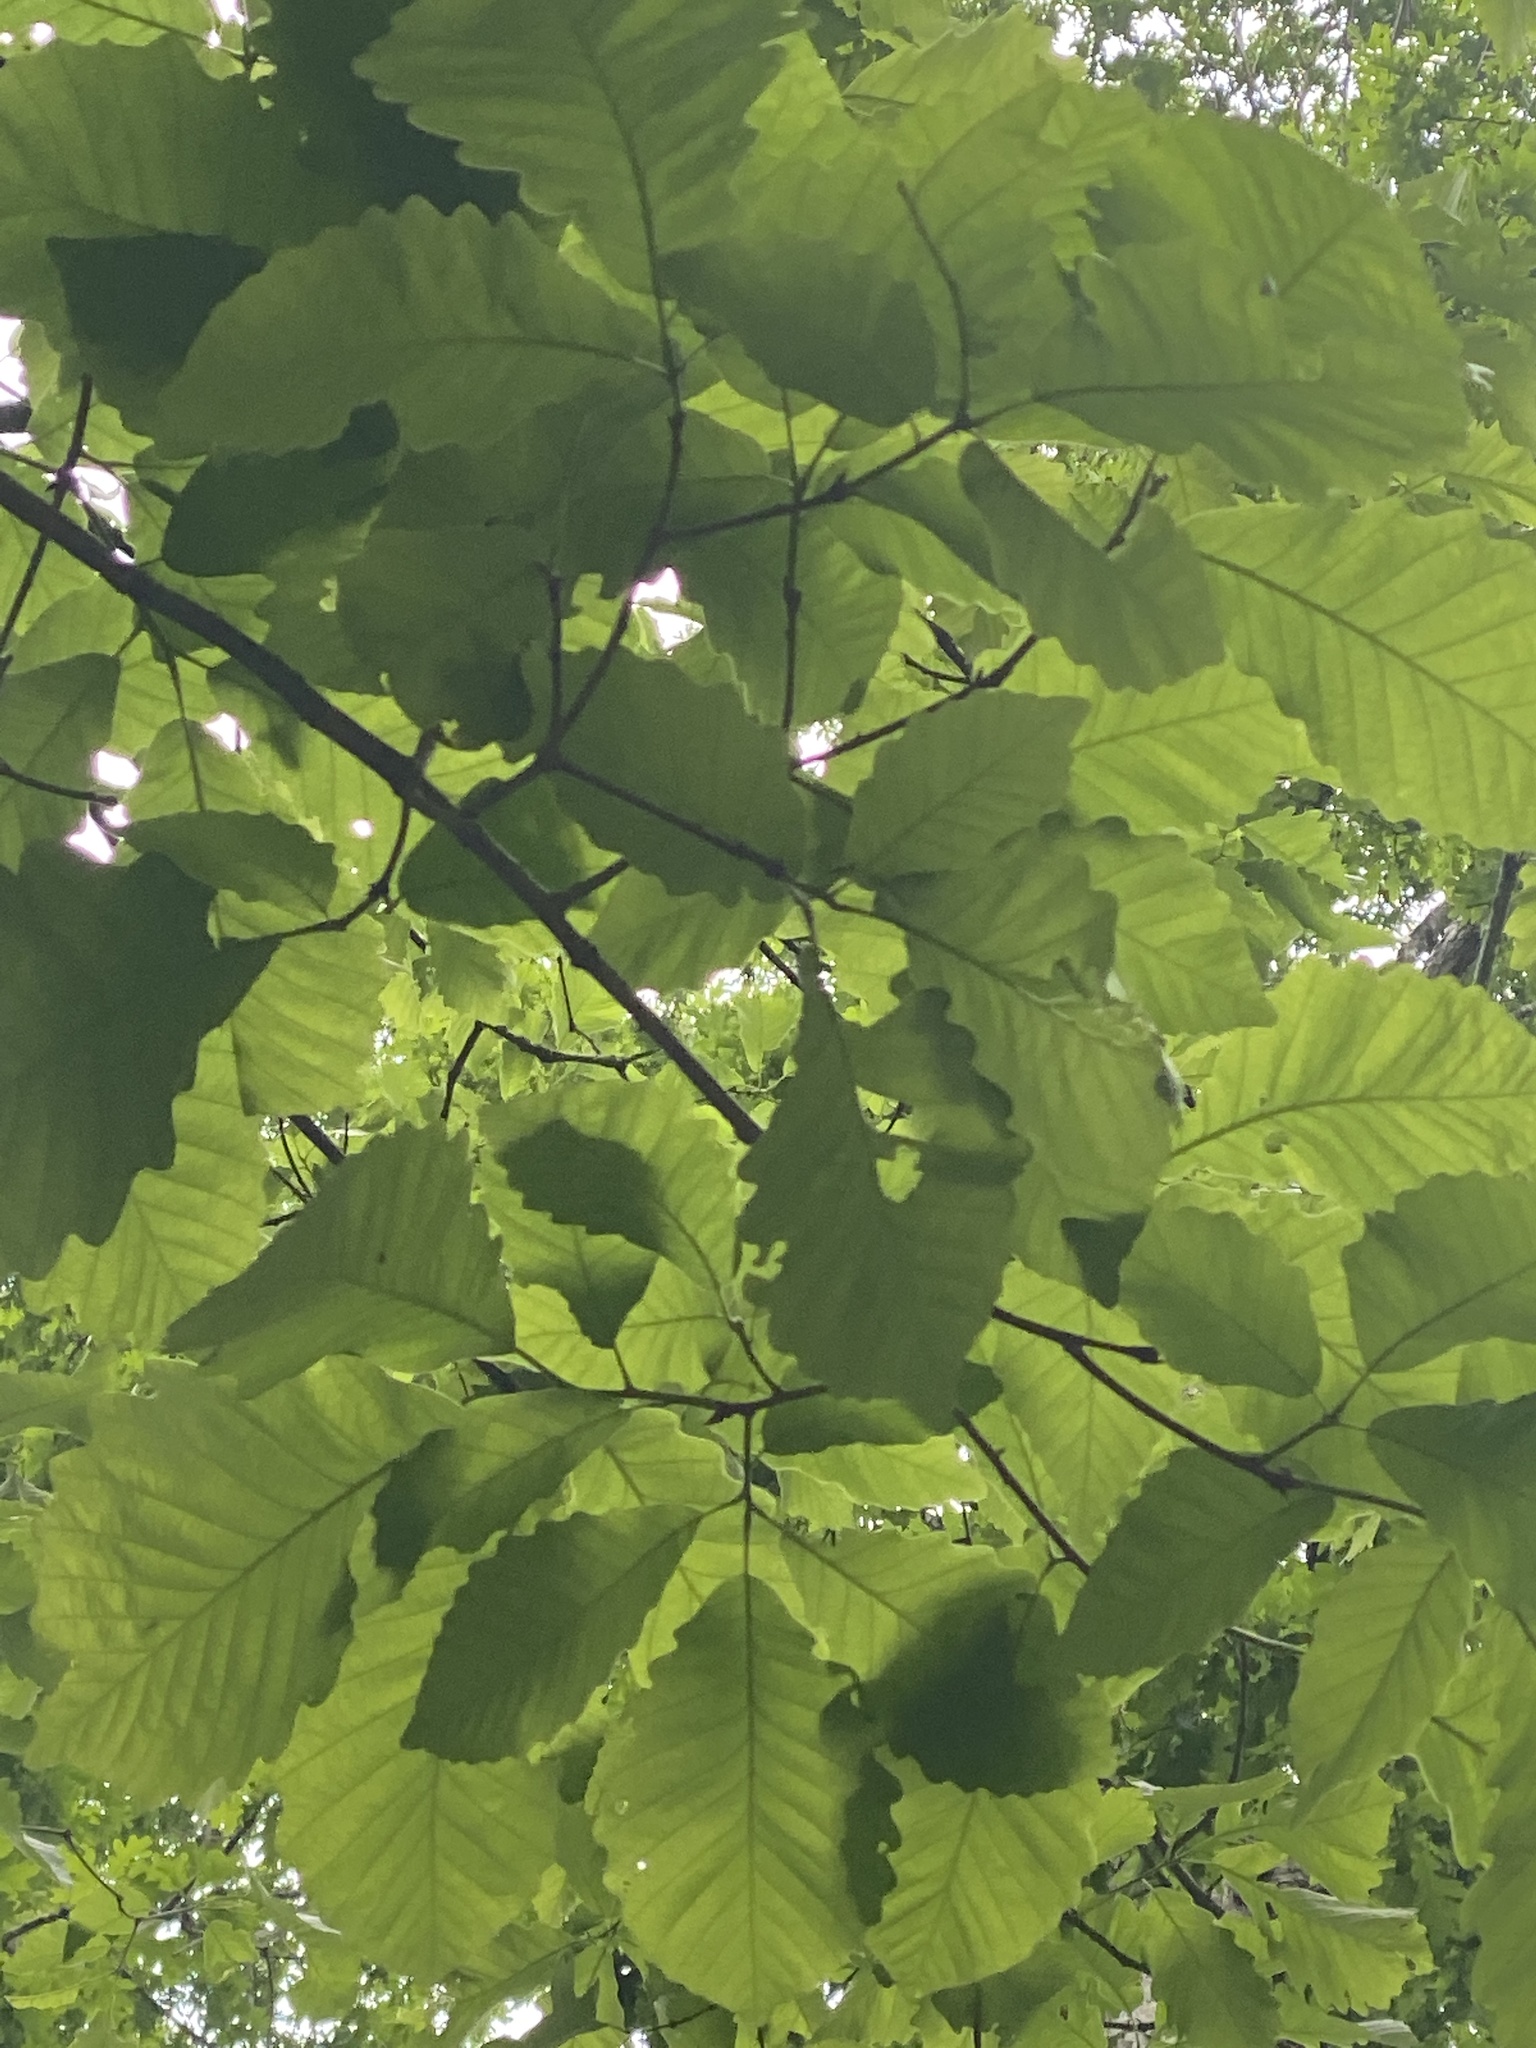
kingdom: Plantae
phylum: Tracheophyta
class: Magnoliopsida
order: Fagales
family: Fagaceae
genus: Quercus
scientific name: Quercus montana
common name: Chestnut oak
